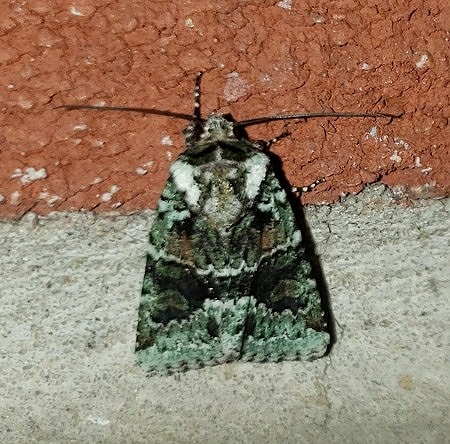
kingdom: Animalia
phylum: Arthropoda
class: Insecta
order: Lepidoptera
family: Noctuidae
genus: Lacinipolia
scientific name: Lacinipolia explicata
